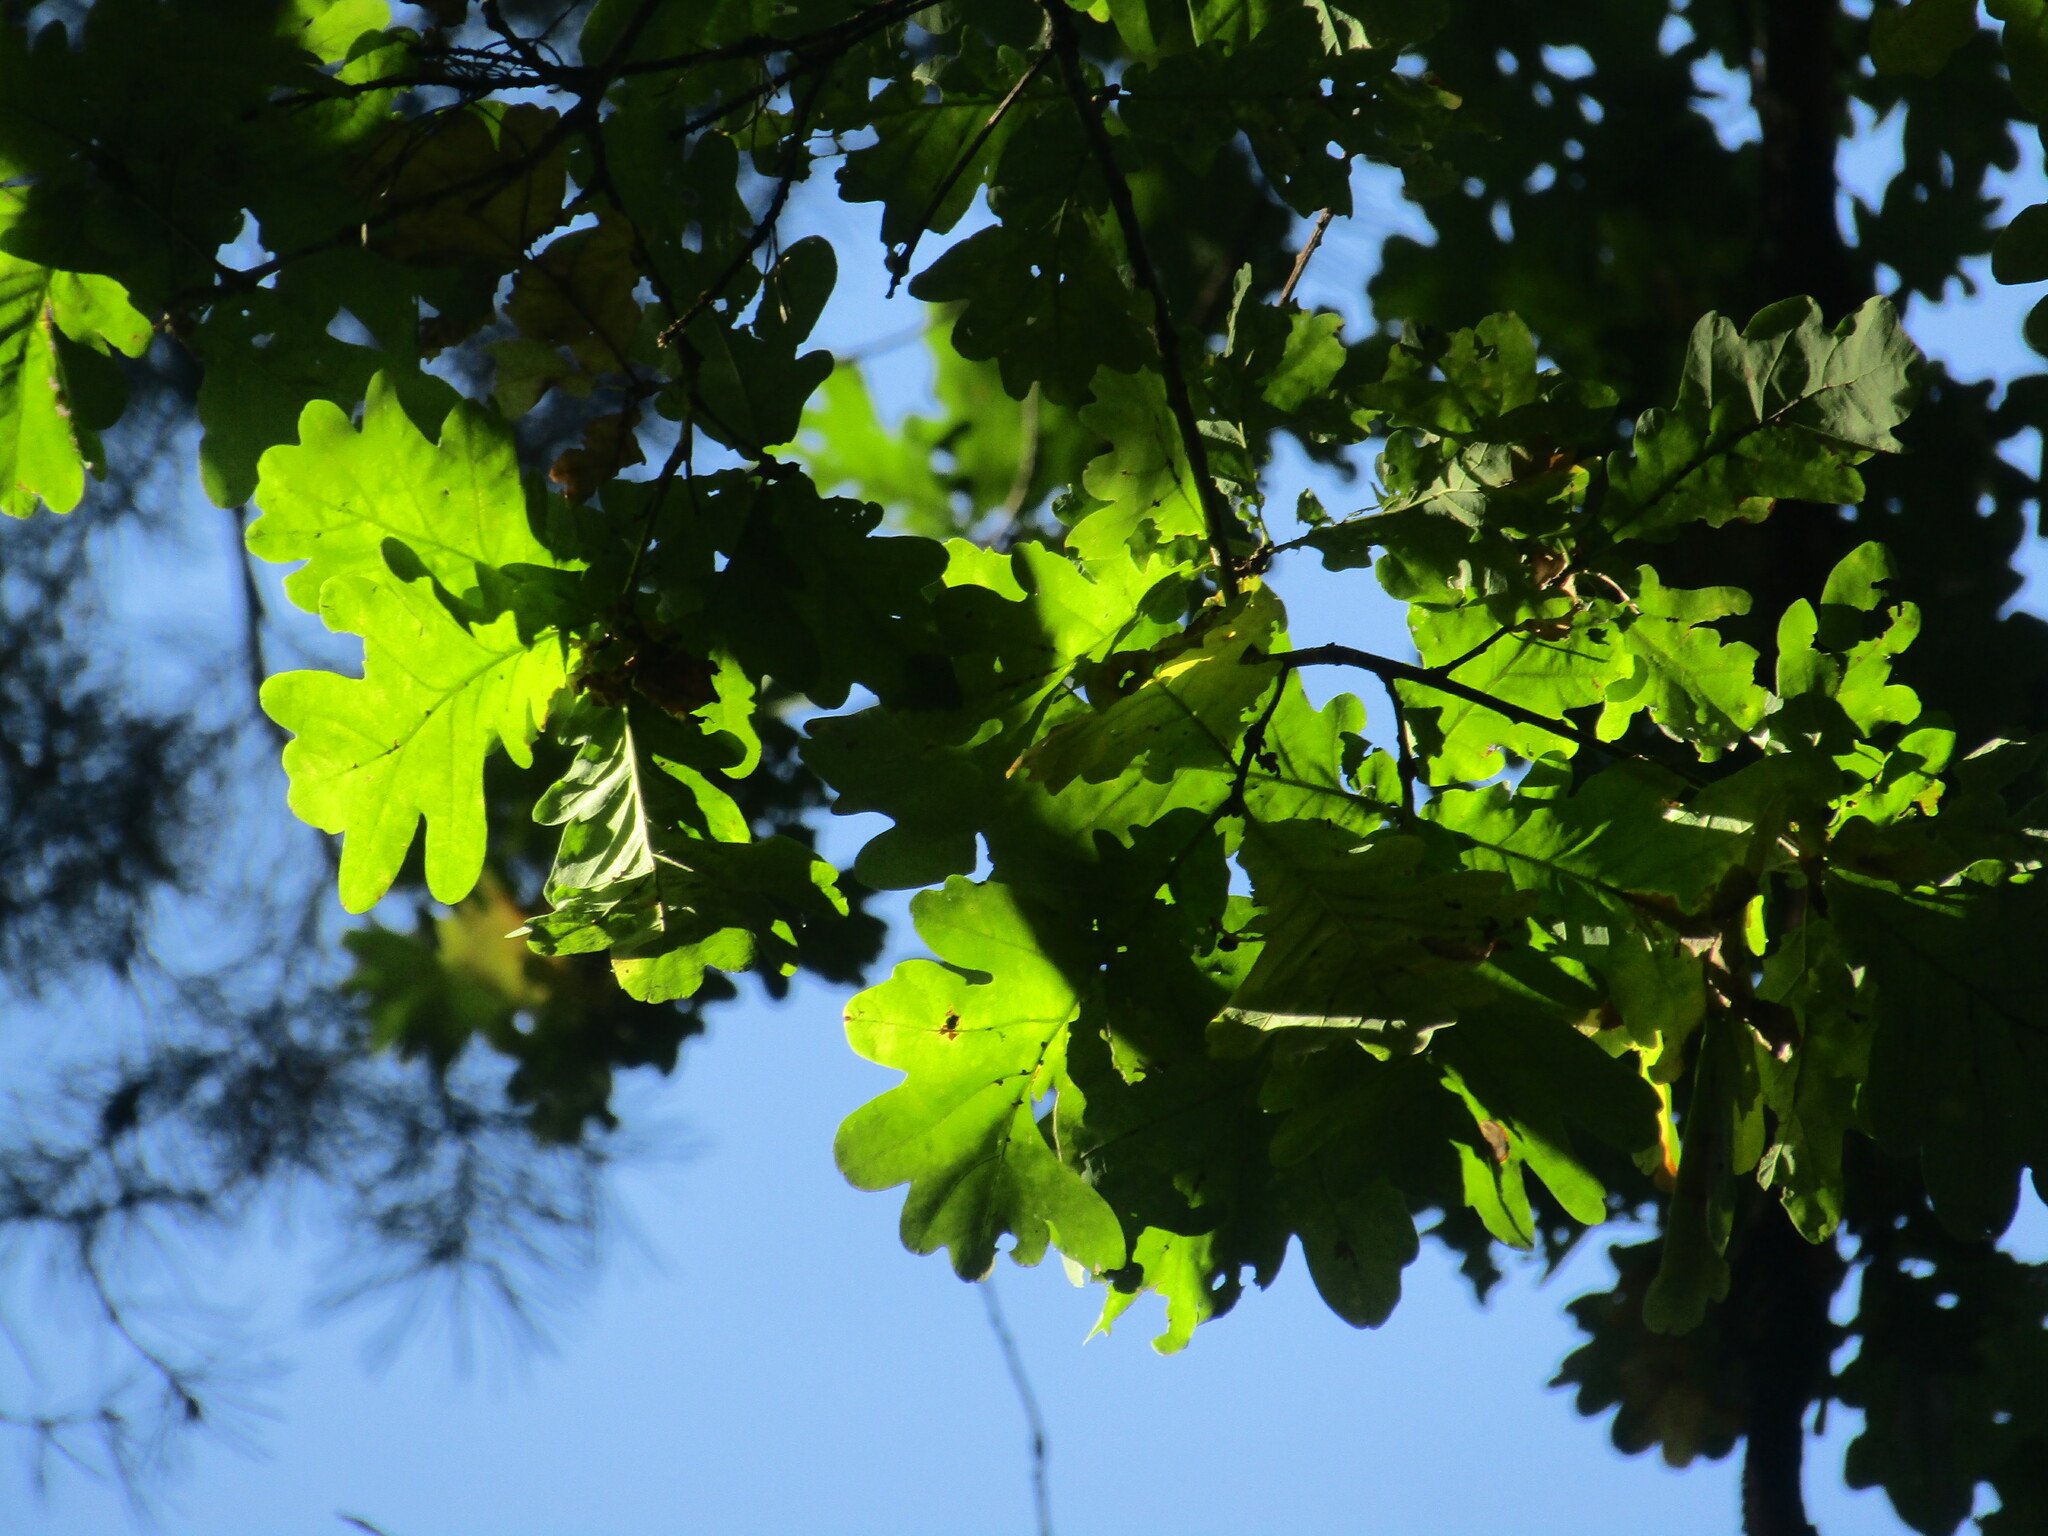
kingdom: Plantae
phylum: Tracheophyta
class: Magnoliopsida
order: Fagales
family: Fagaceae
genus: Quercus
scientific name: Quercus robur
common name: Pedunculate oak
